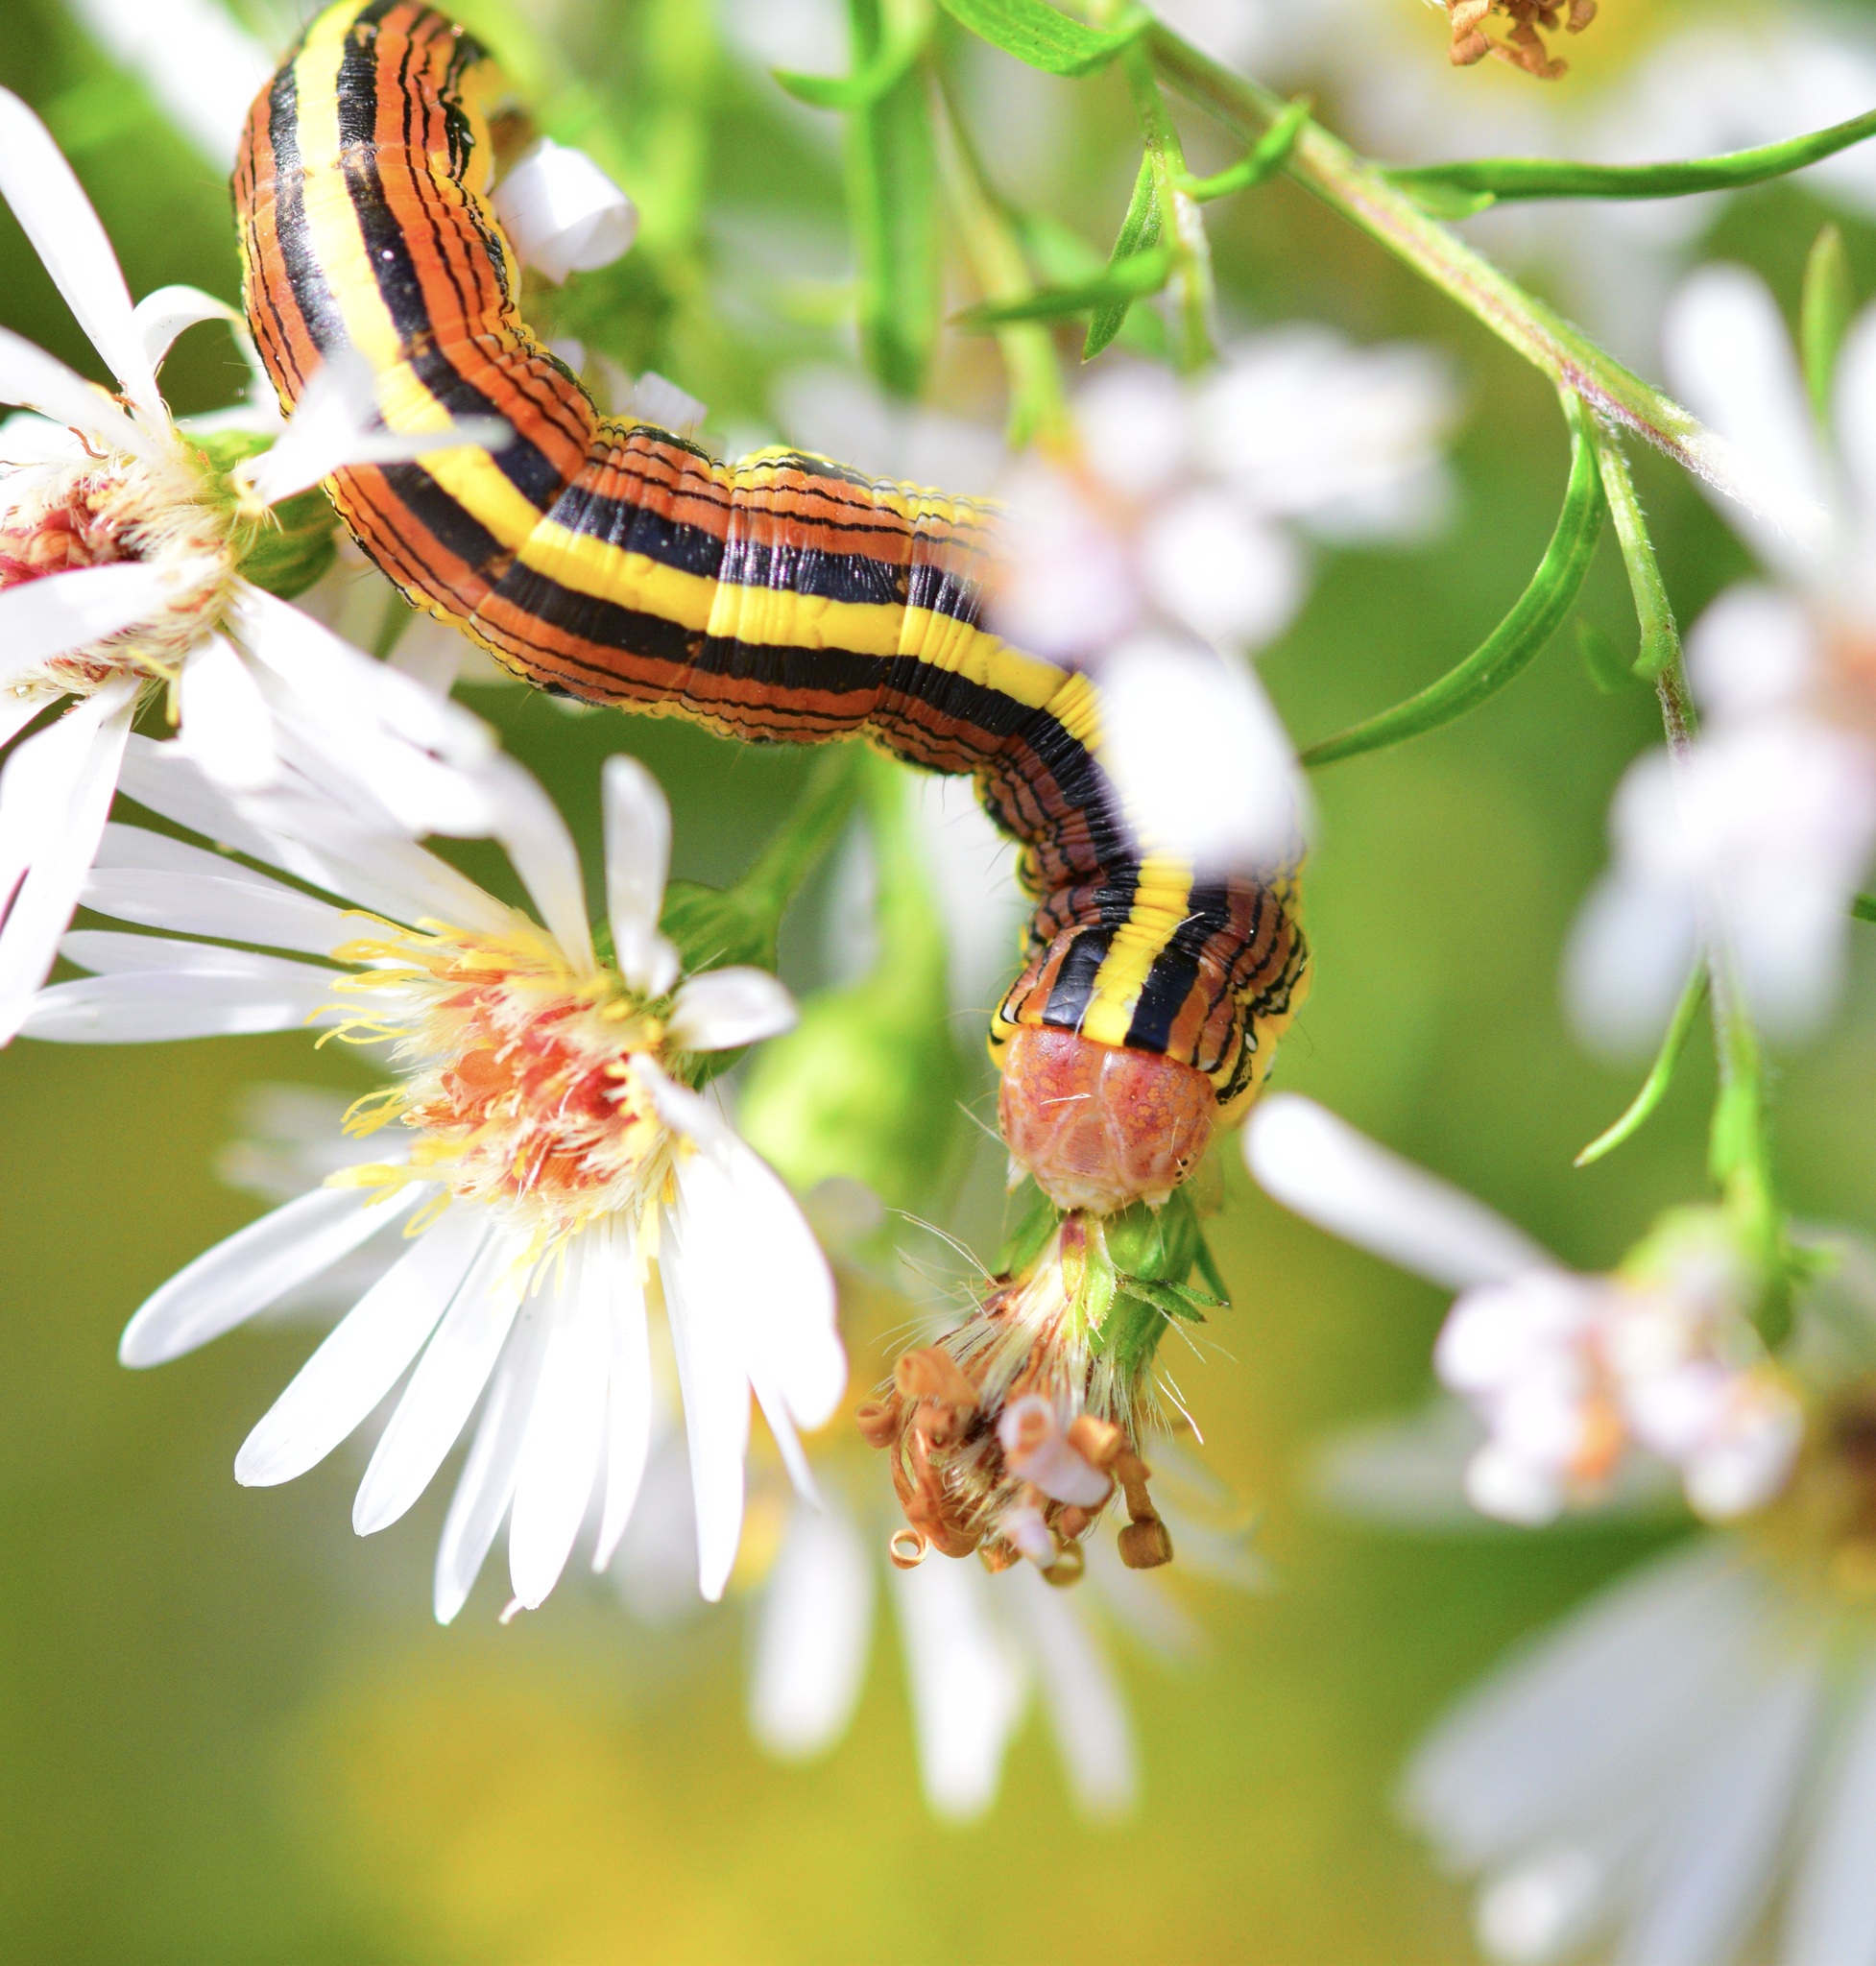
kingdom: Animalia
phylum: Arthropoda
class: Insecta
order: Lepidoptera
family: Noctuidae
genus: Cucullia
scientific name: Cucullia asteroides
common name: Asteroid moth
